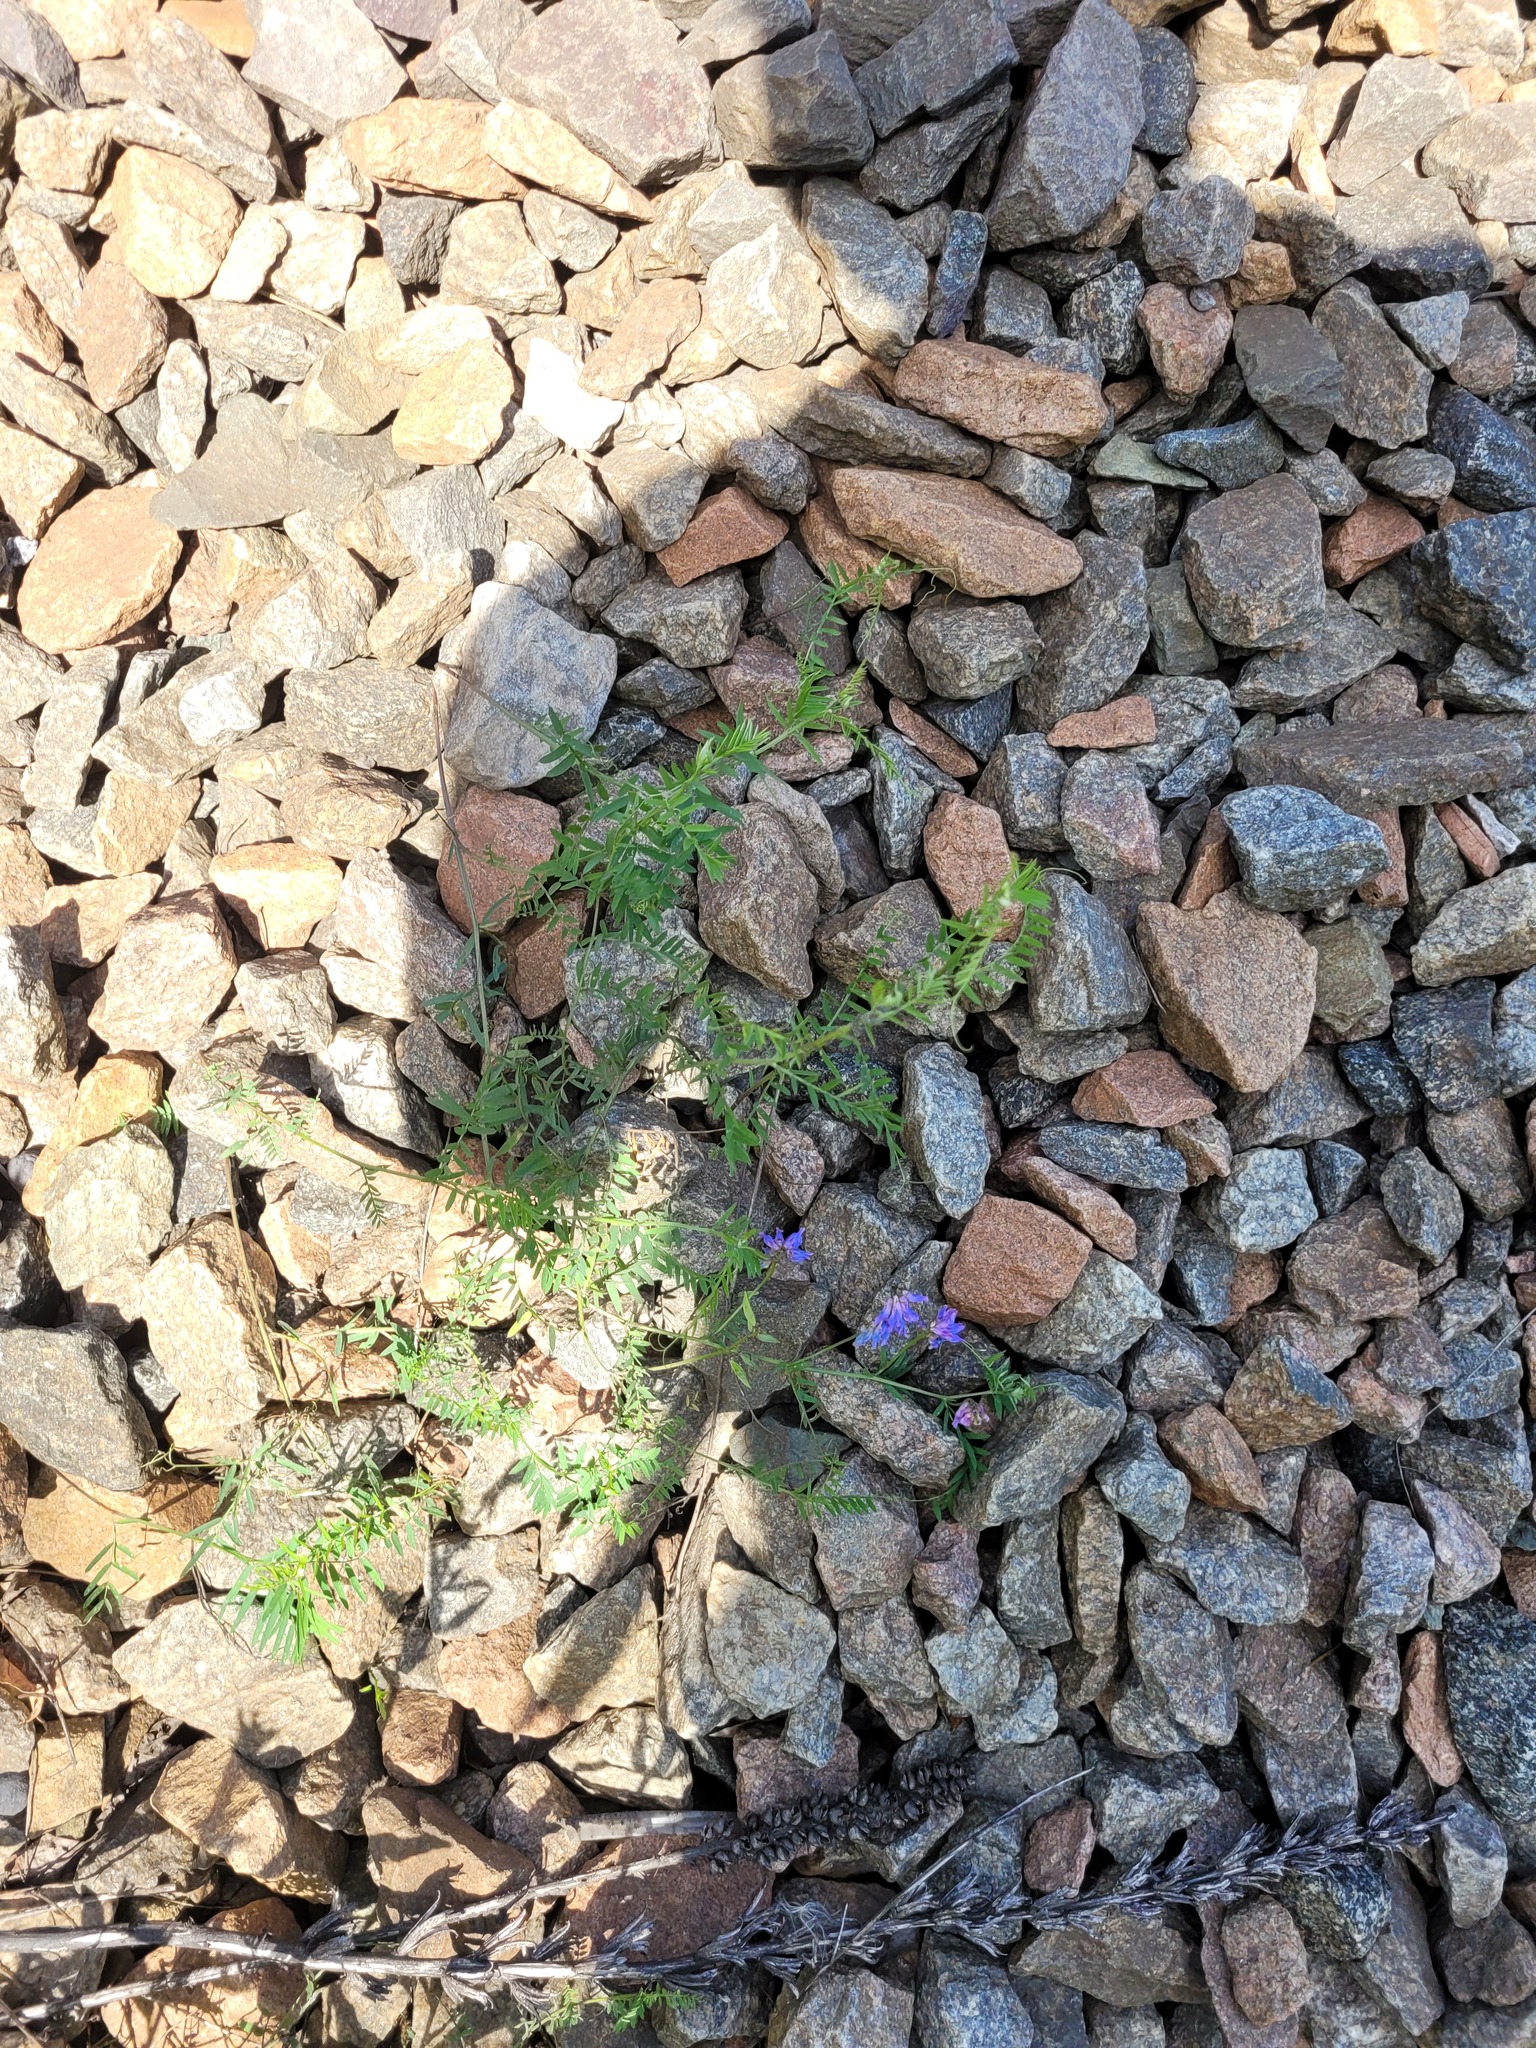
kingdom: Plantae
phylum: Tracheophyta
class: Magnoliopsida
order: Fabales
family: Fabaceae
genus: Vicia
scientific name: Vicia cracca
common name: Bird vetch
